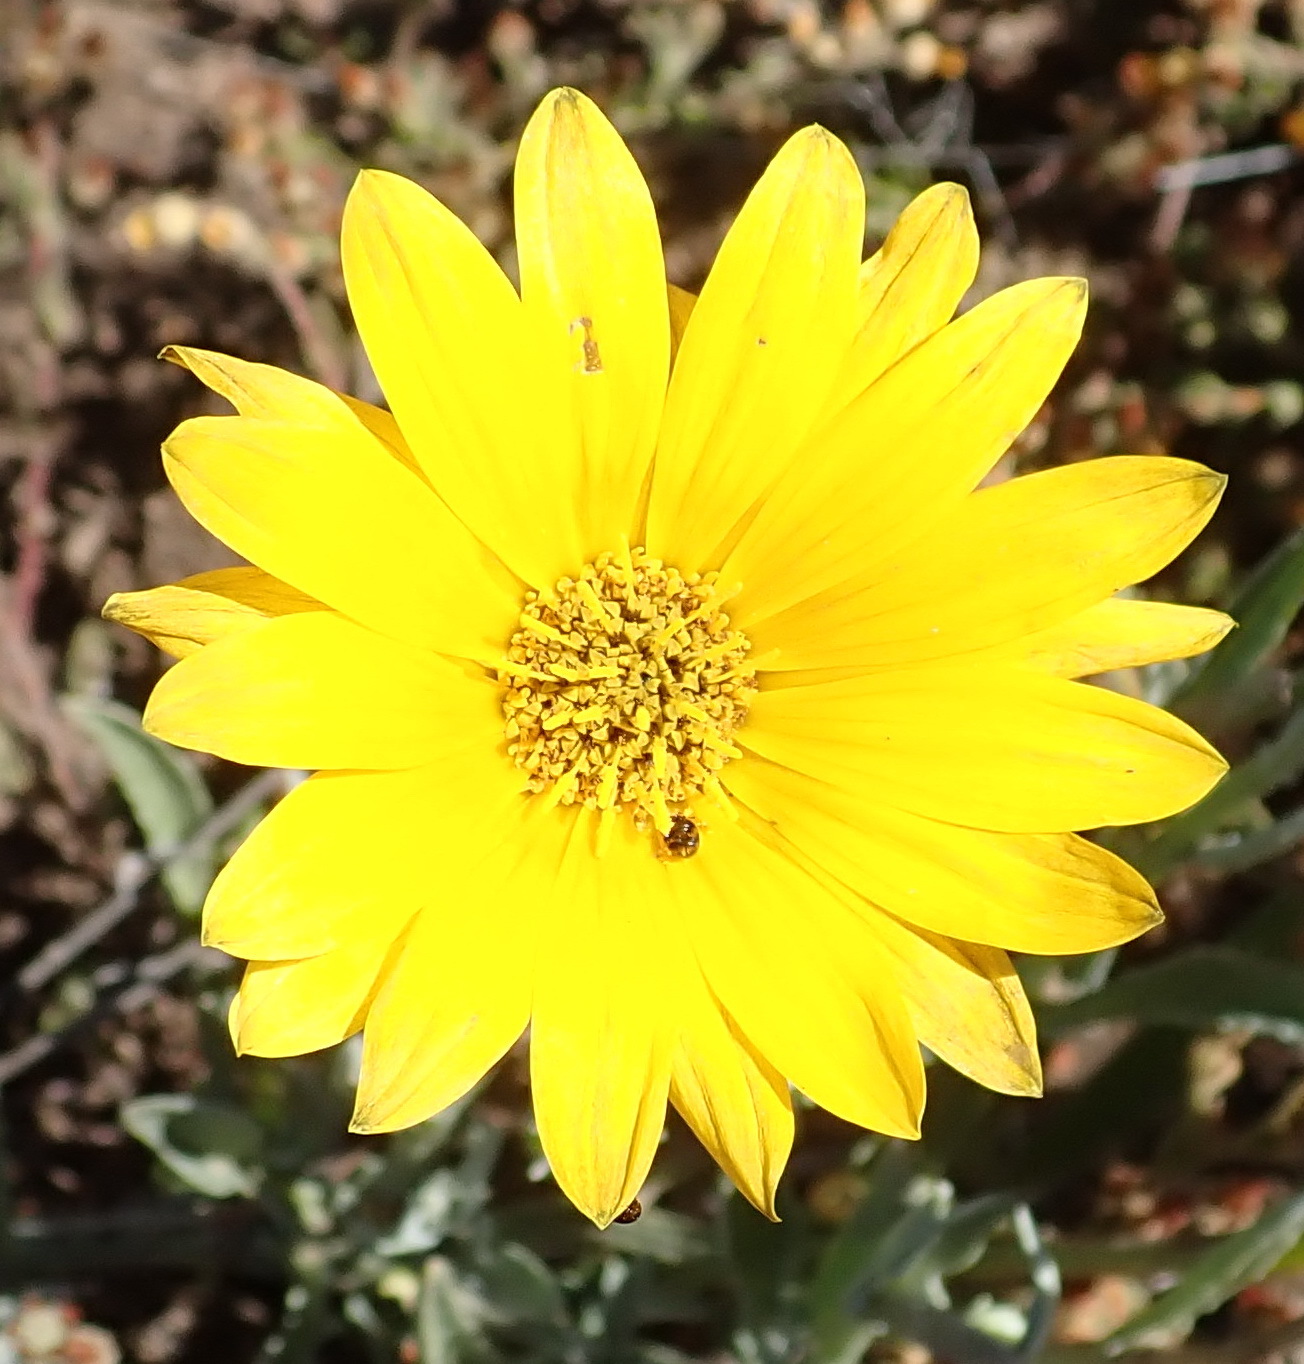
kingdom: Plantae
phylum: Tracheophyta
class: Magnoliopsida
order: Asterales
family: Asteraceae
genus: Arctotis
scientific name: Arctotis lanceolata
